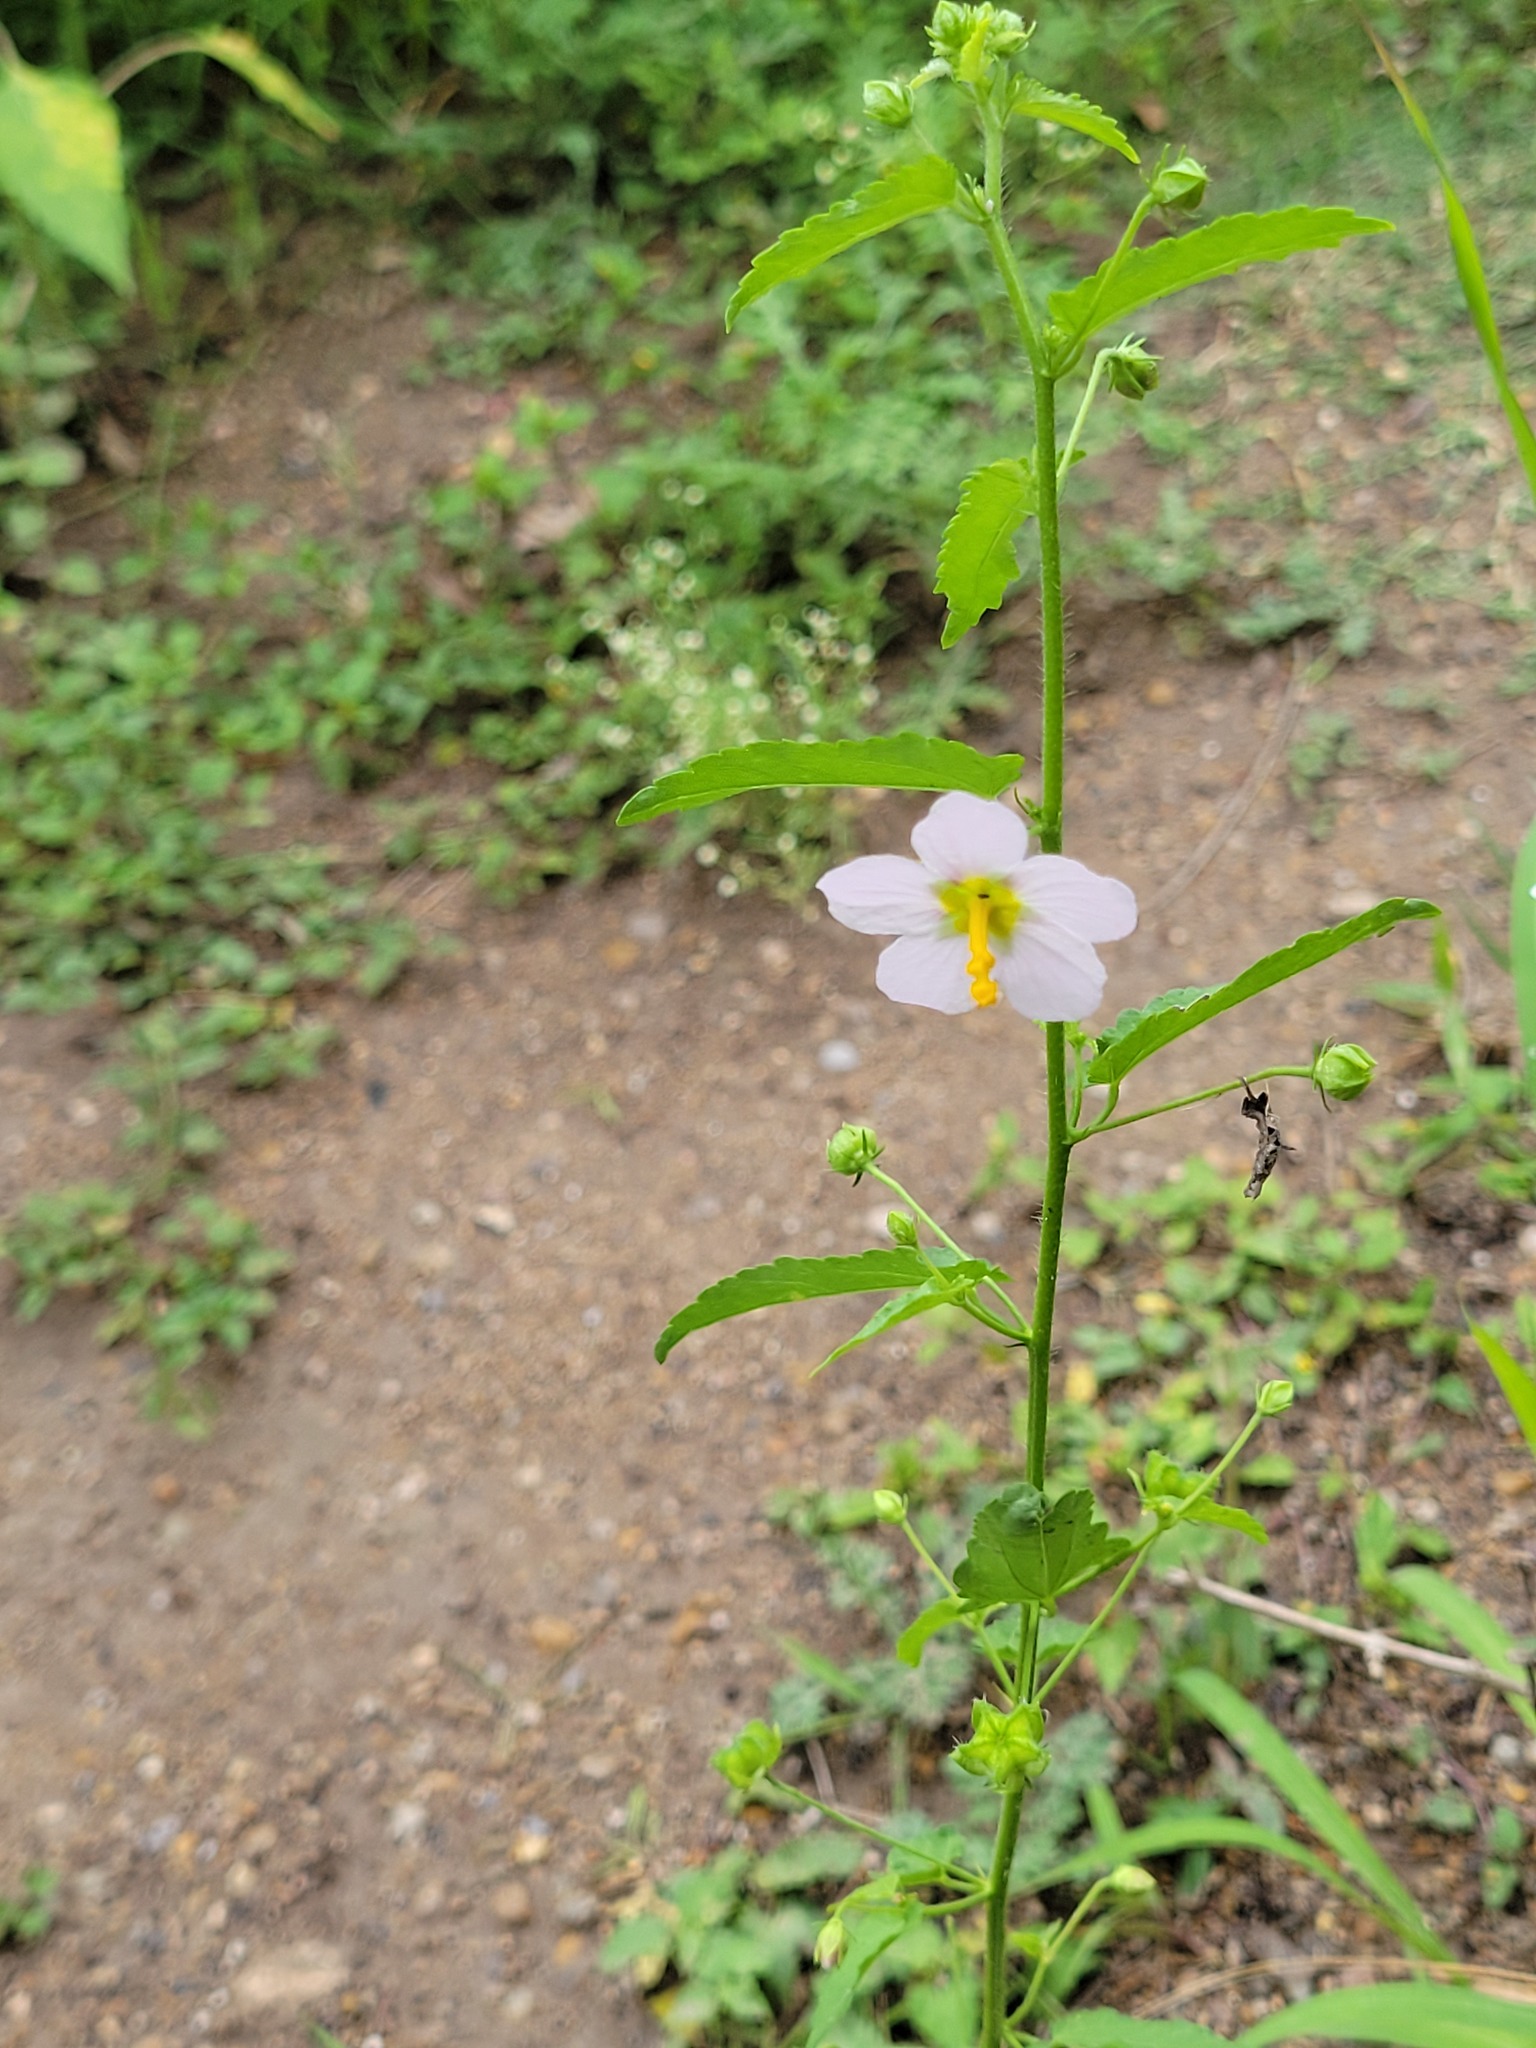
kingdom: Plantae
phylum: Tracheophyta
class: Magnoliopsida
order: Malvales
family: Malvaceae
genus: Kosteletzkya
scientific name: Kosteletzkya pentacarpos
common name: Virginia saltmarsh mallow
